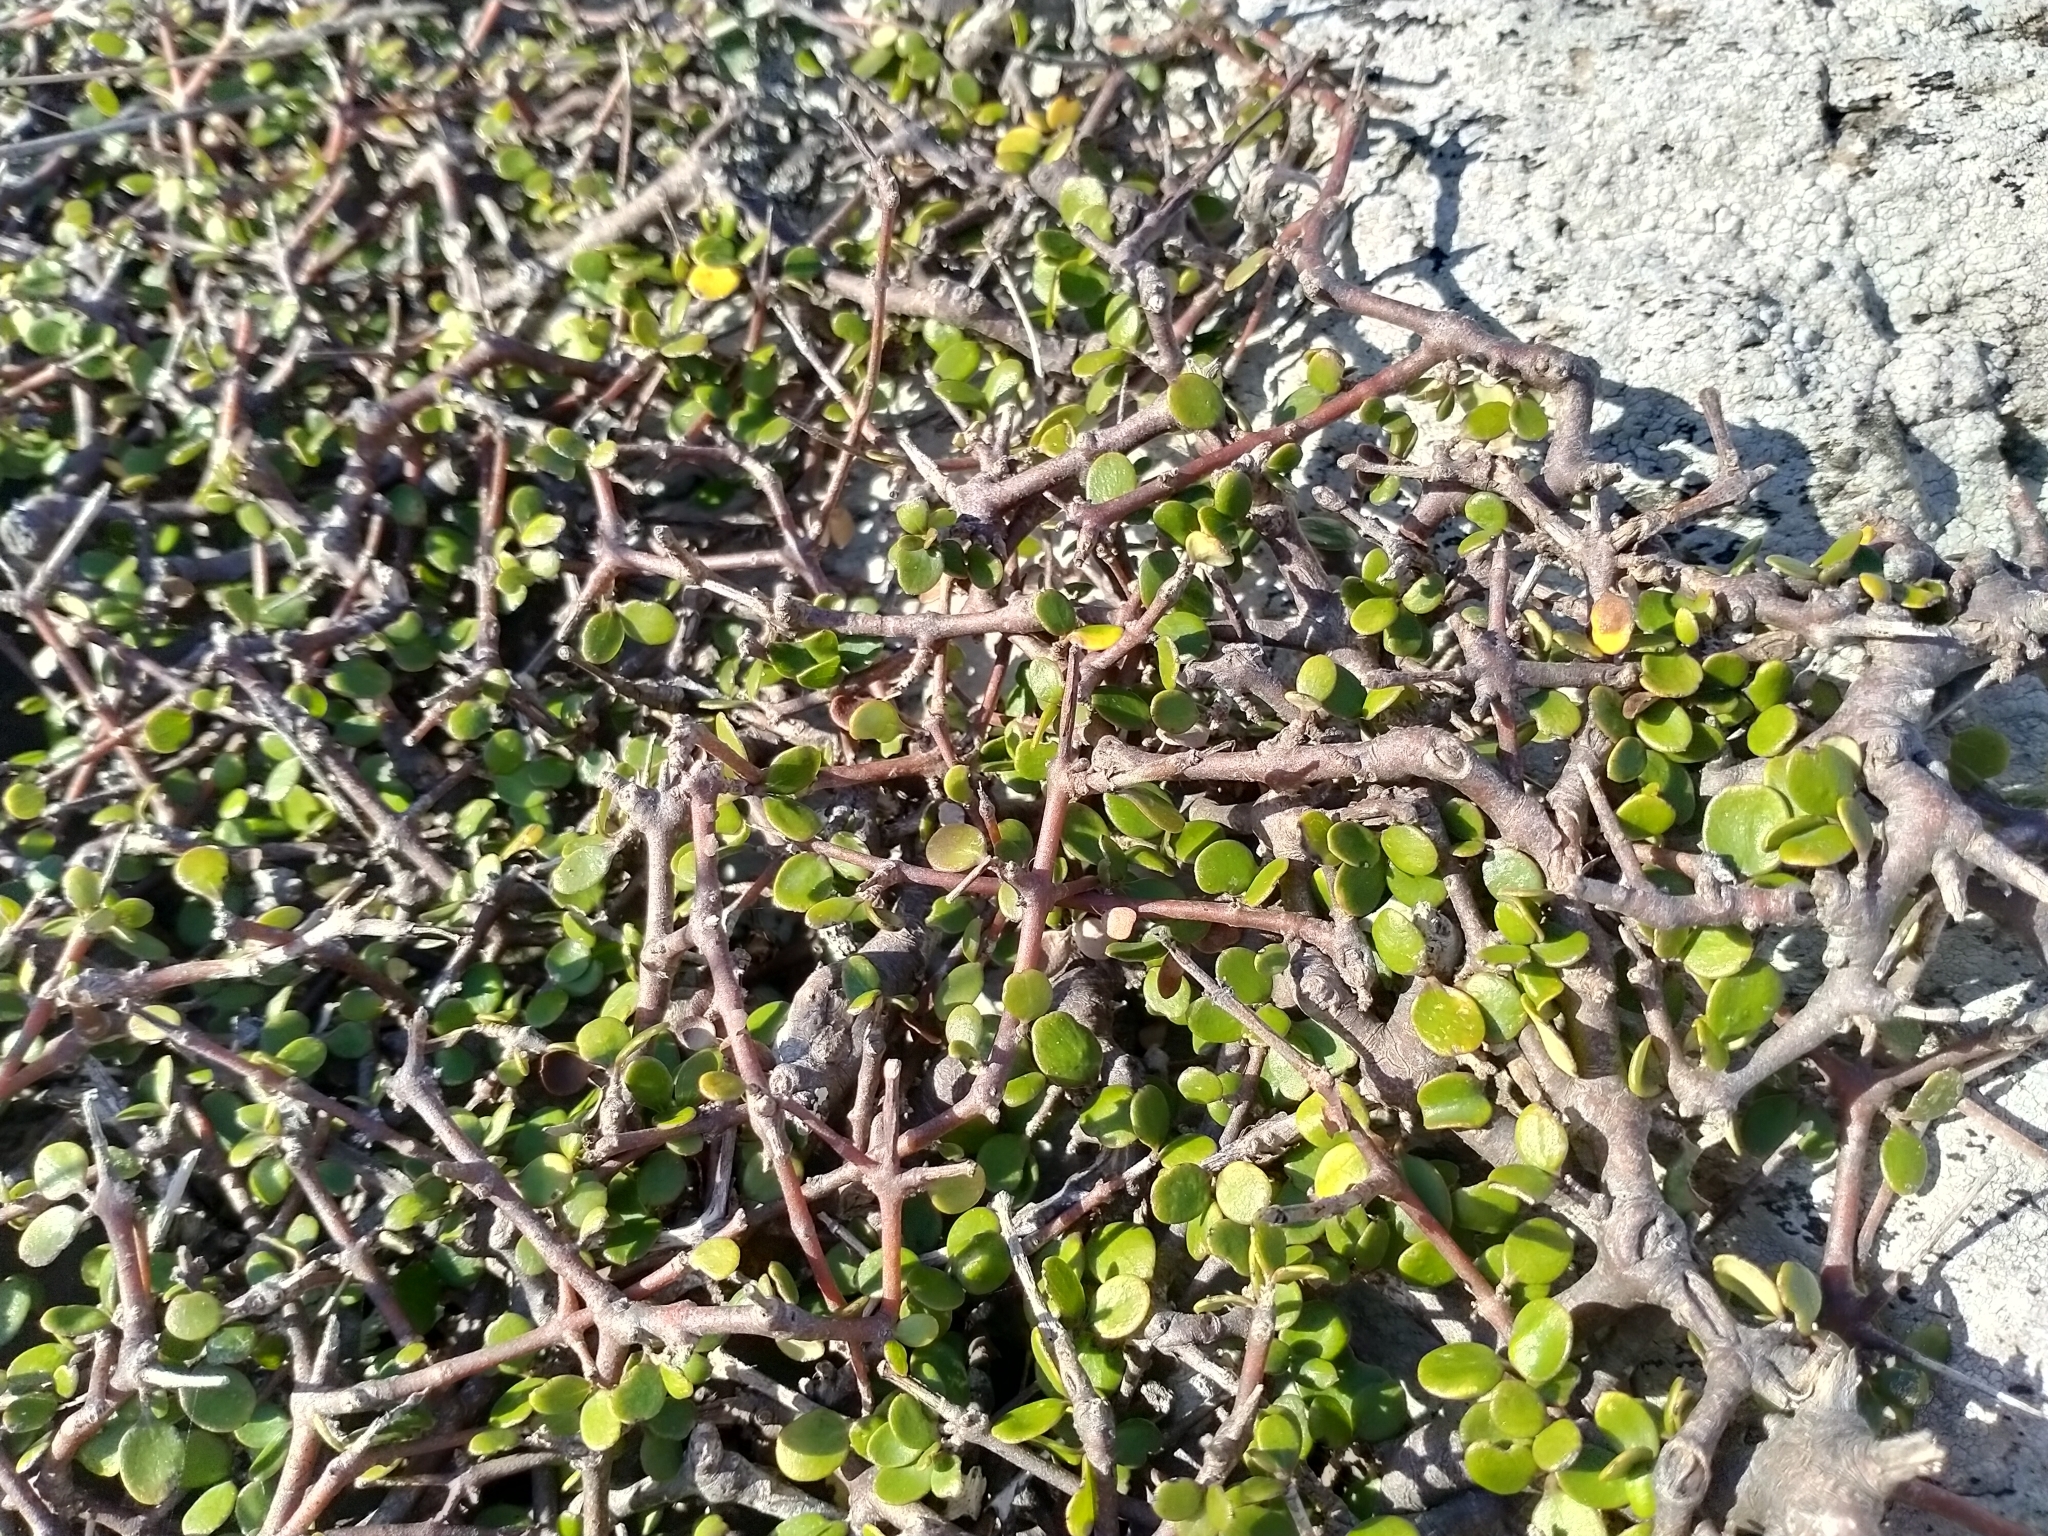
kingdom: Plantae
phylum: Tracheophyta
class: Magnoliopsida
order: Gentianales
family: Rubiaceae
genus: Coprosma
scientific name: Coprosma crassifolia
